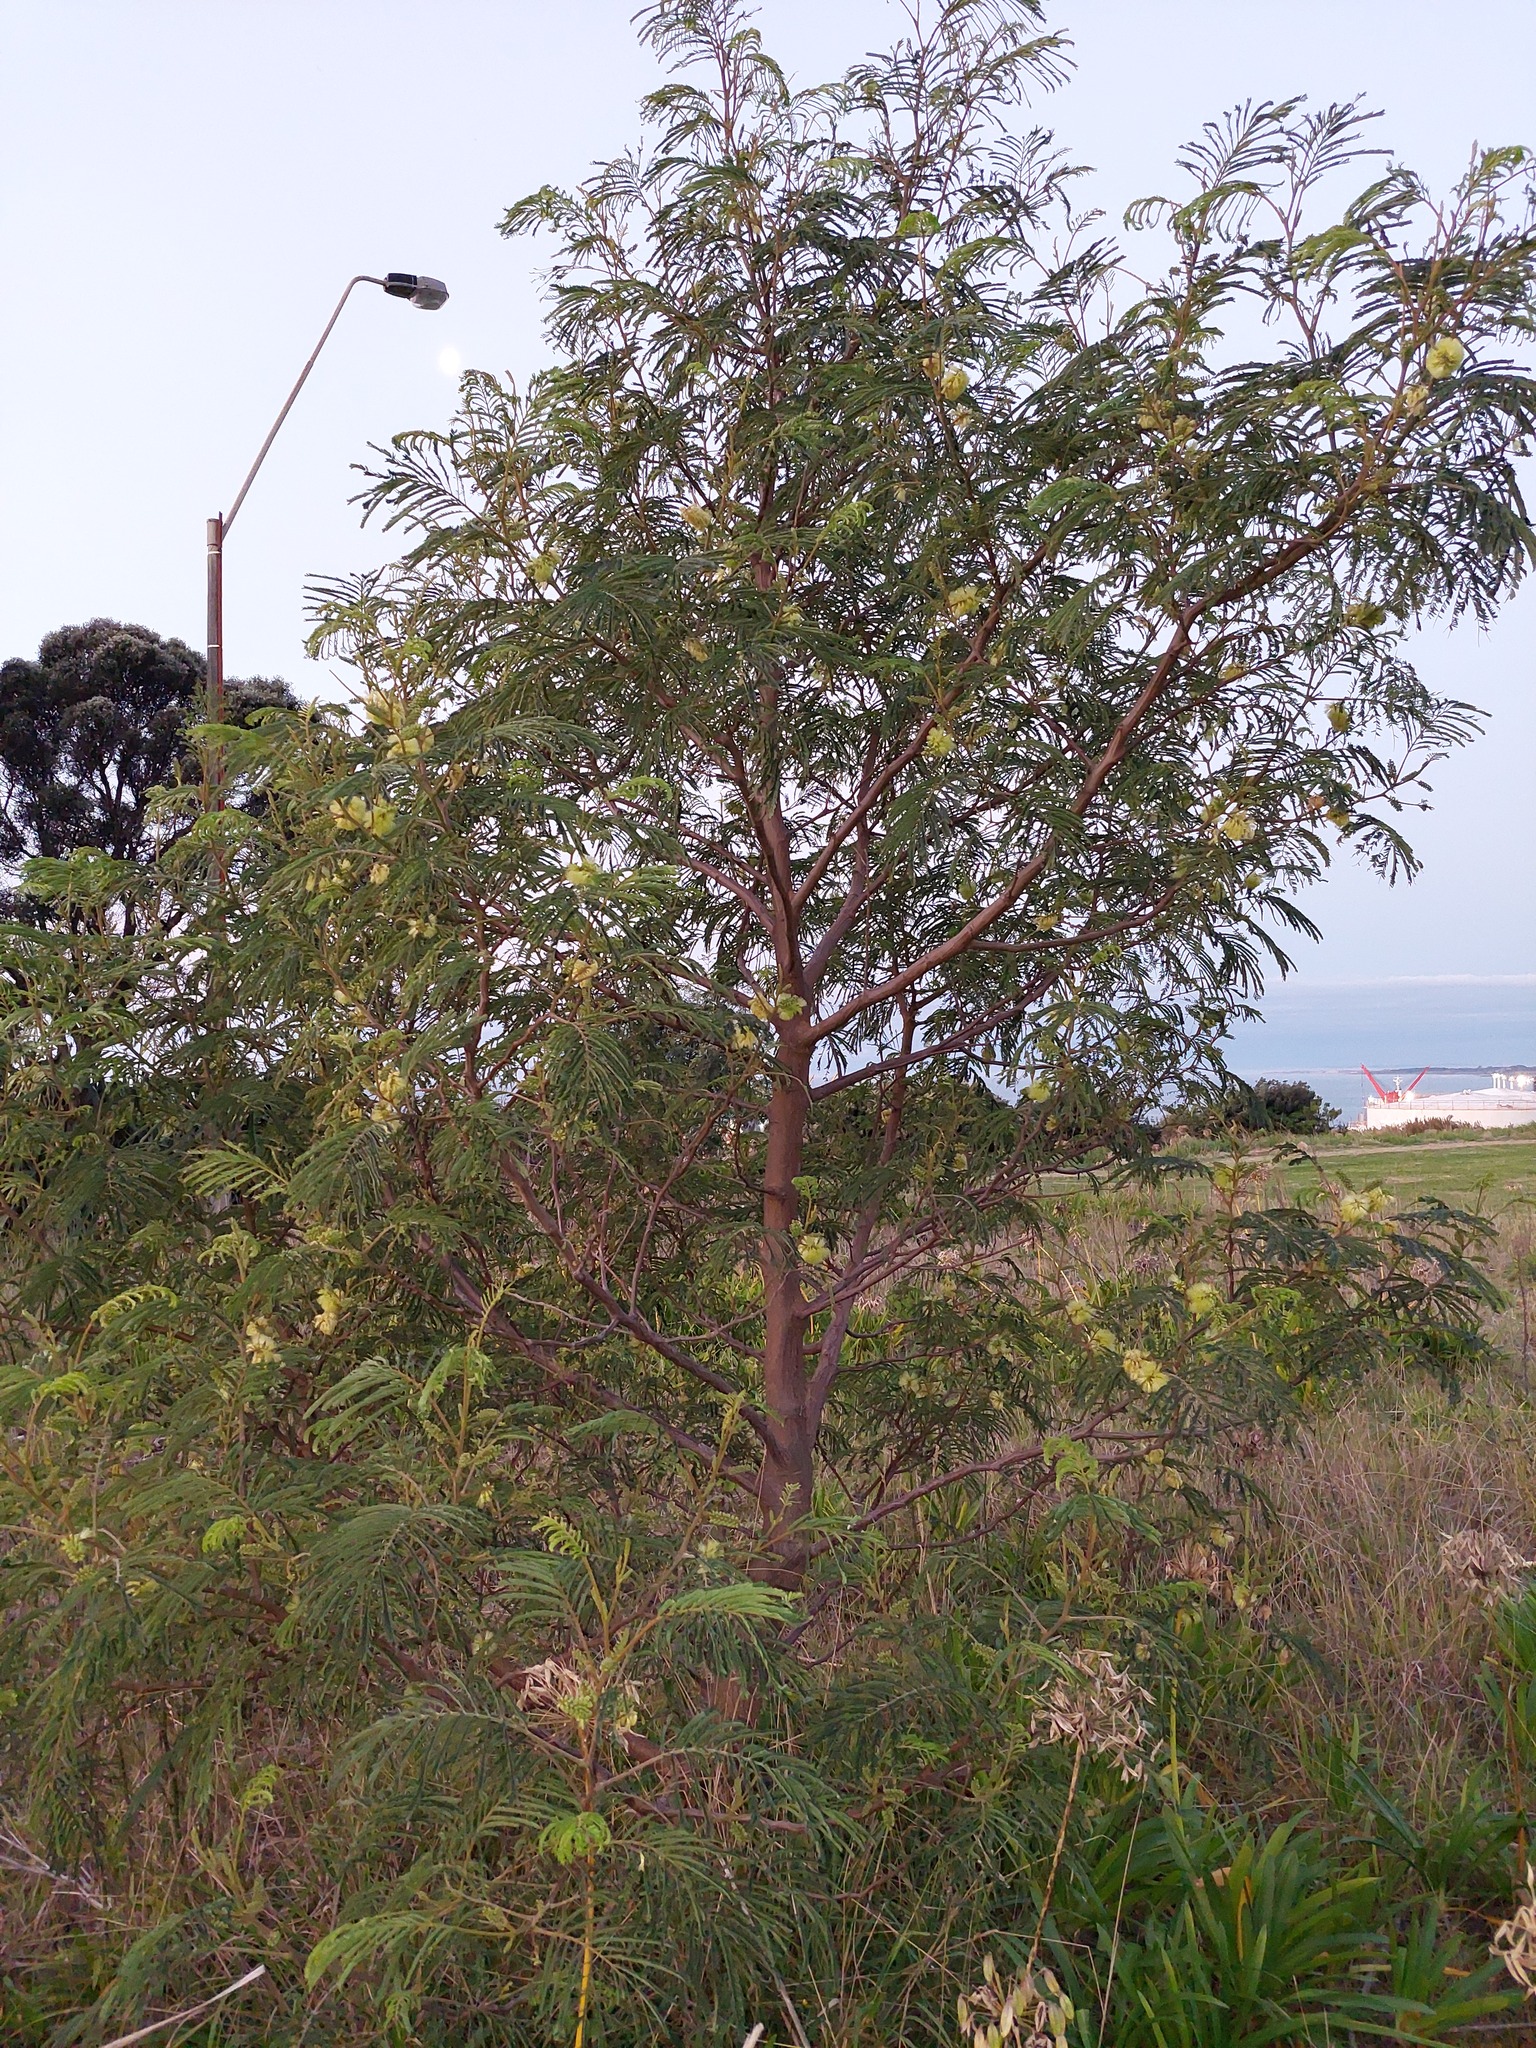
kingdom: Plantae
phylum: Tracheophyta
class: Magnoliopsida
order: Fabales
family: Fabaceae
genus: Paraserianthes
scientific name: Paraserianthes lophantha
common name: Plume albizia
